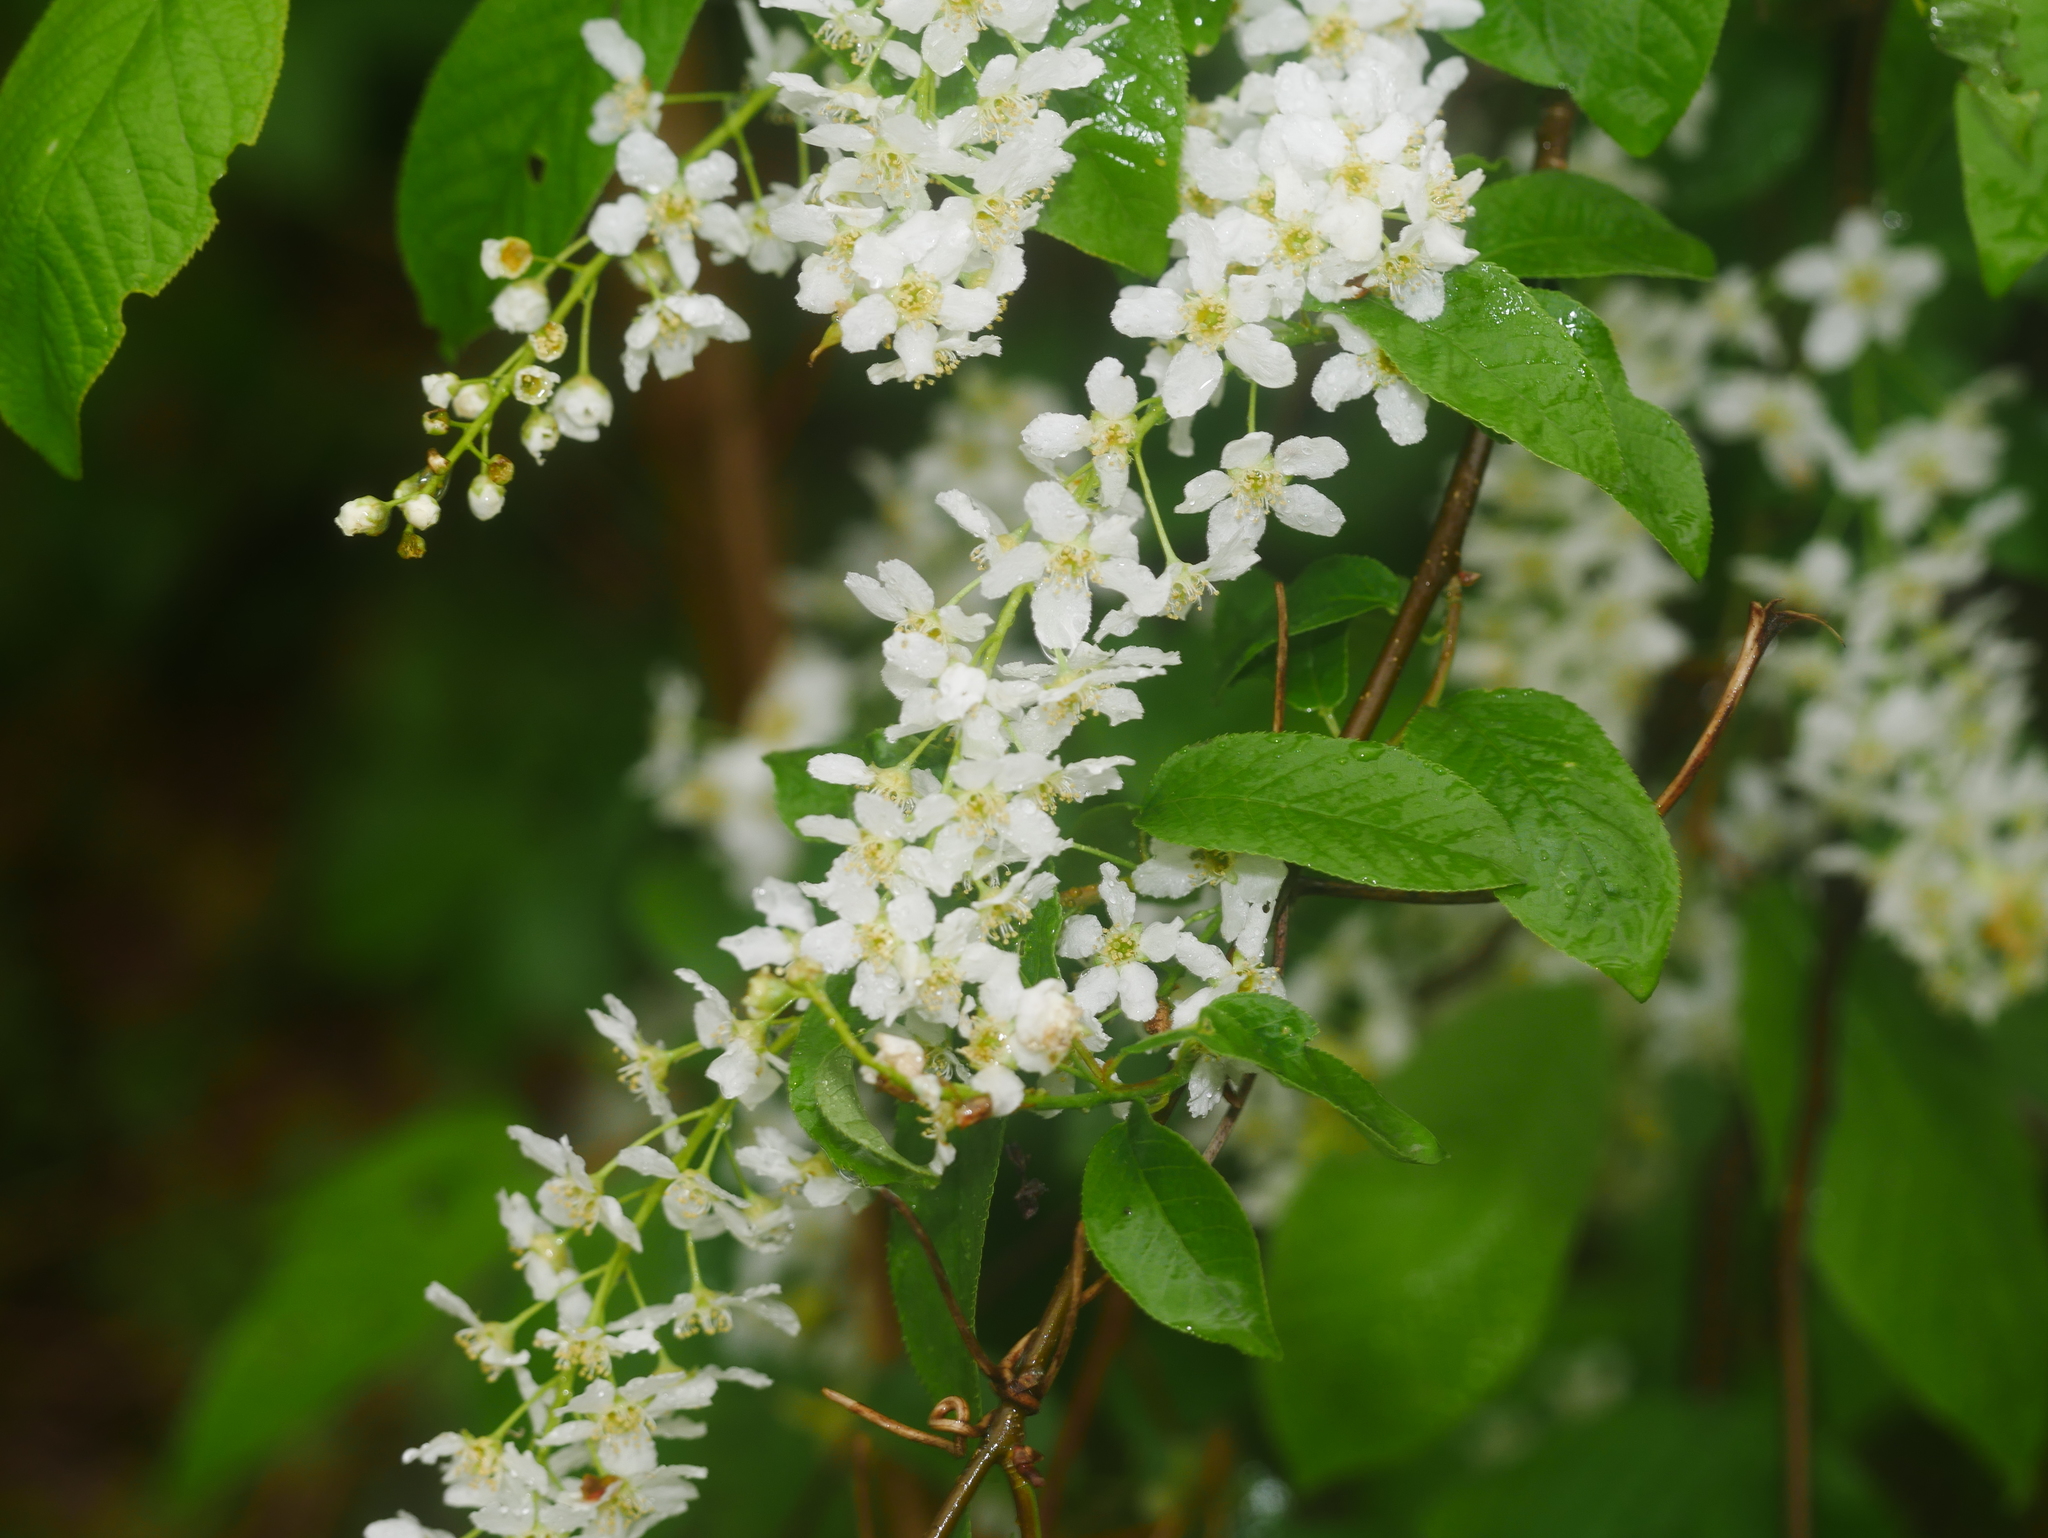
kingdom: Plantae
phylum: Tracheophyta
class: Magnoliopsida
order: Rosales
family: Rosaceae
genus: Prunus
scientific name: Prunus padus
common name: Bird cherry
